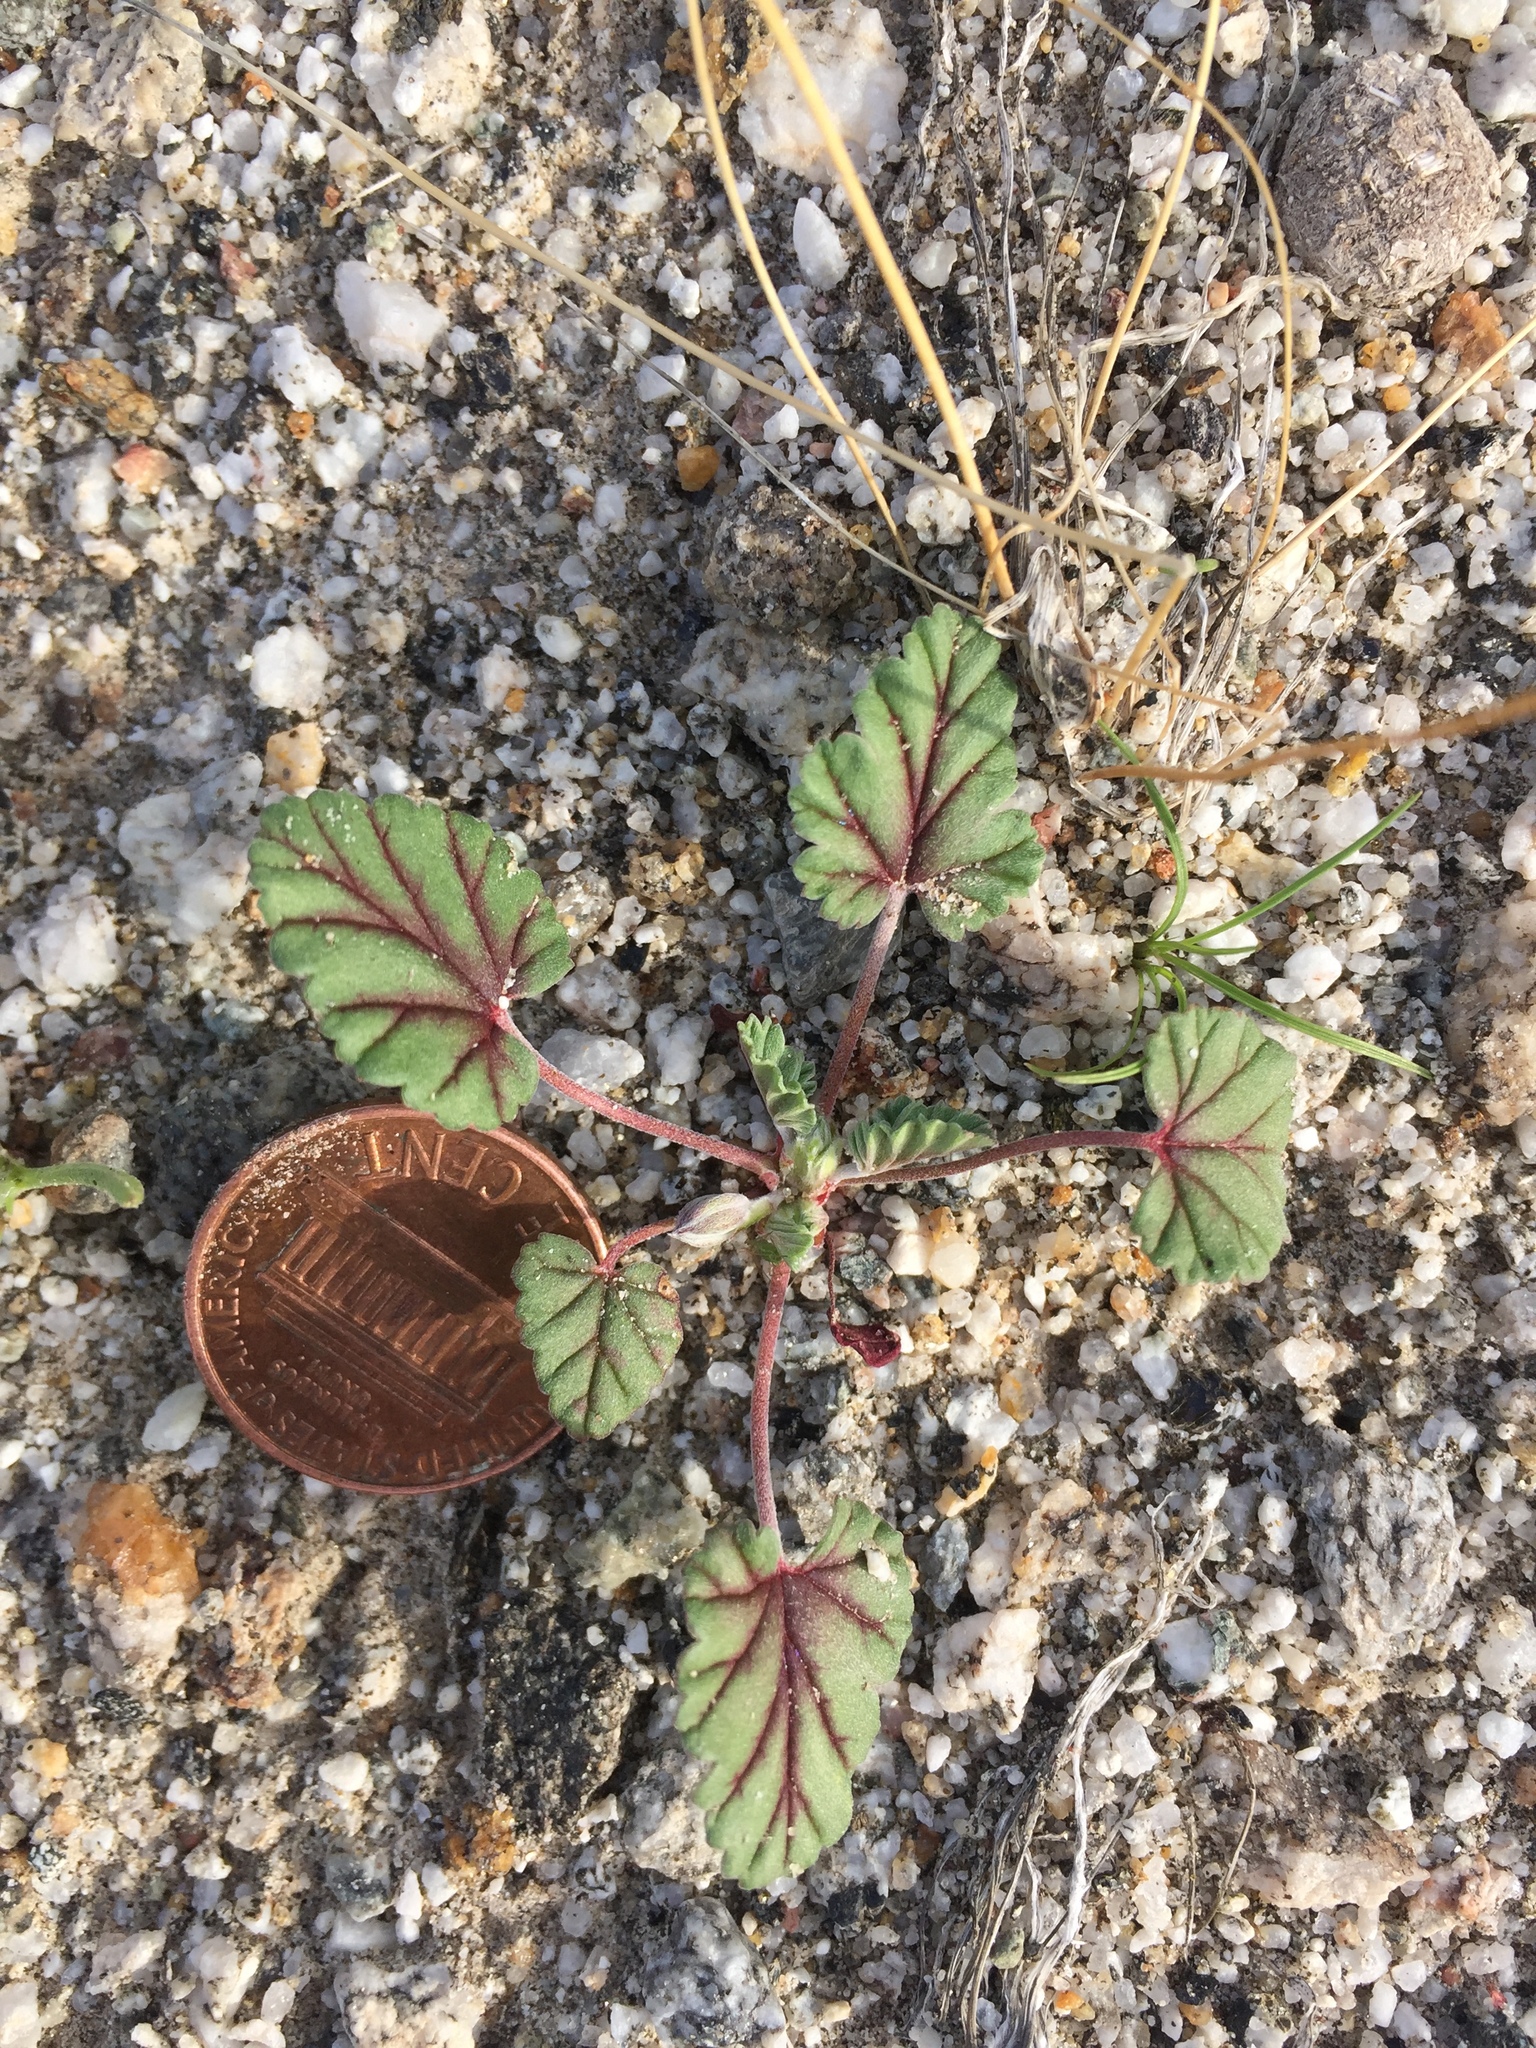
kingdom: Plantae
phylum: Tracheophyta
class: Magnoliopsida
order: Geraniales
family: Geraniaceae
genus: Erodium
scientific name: Erodium texanum
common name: Texas stork's-bill
